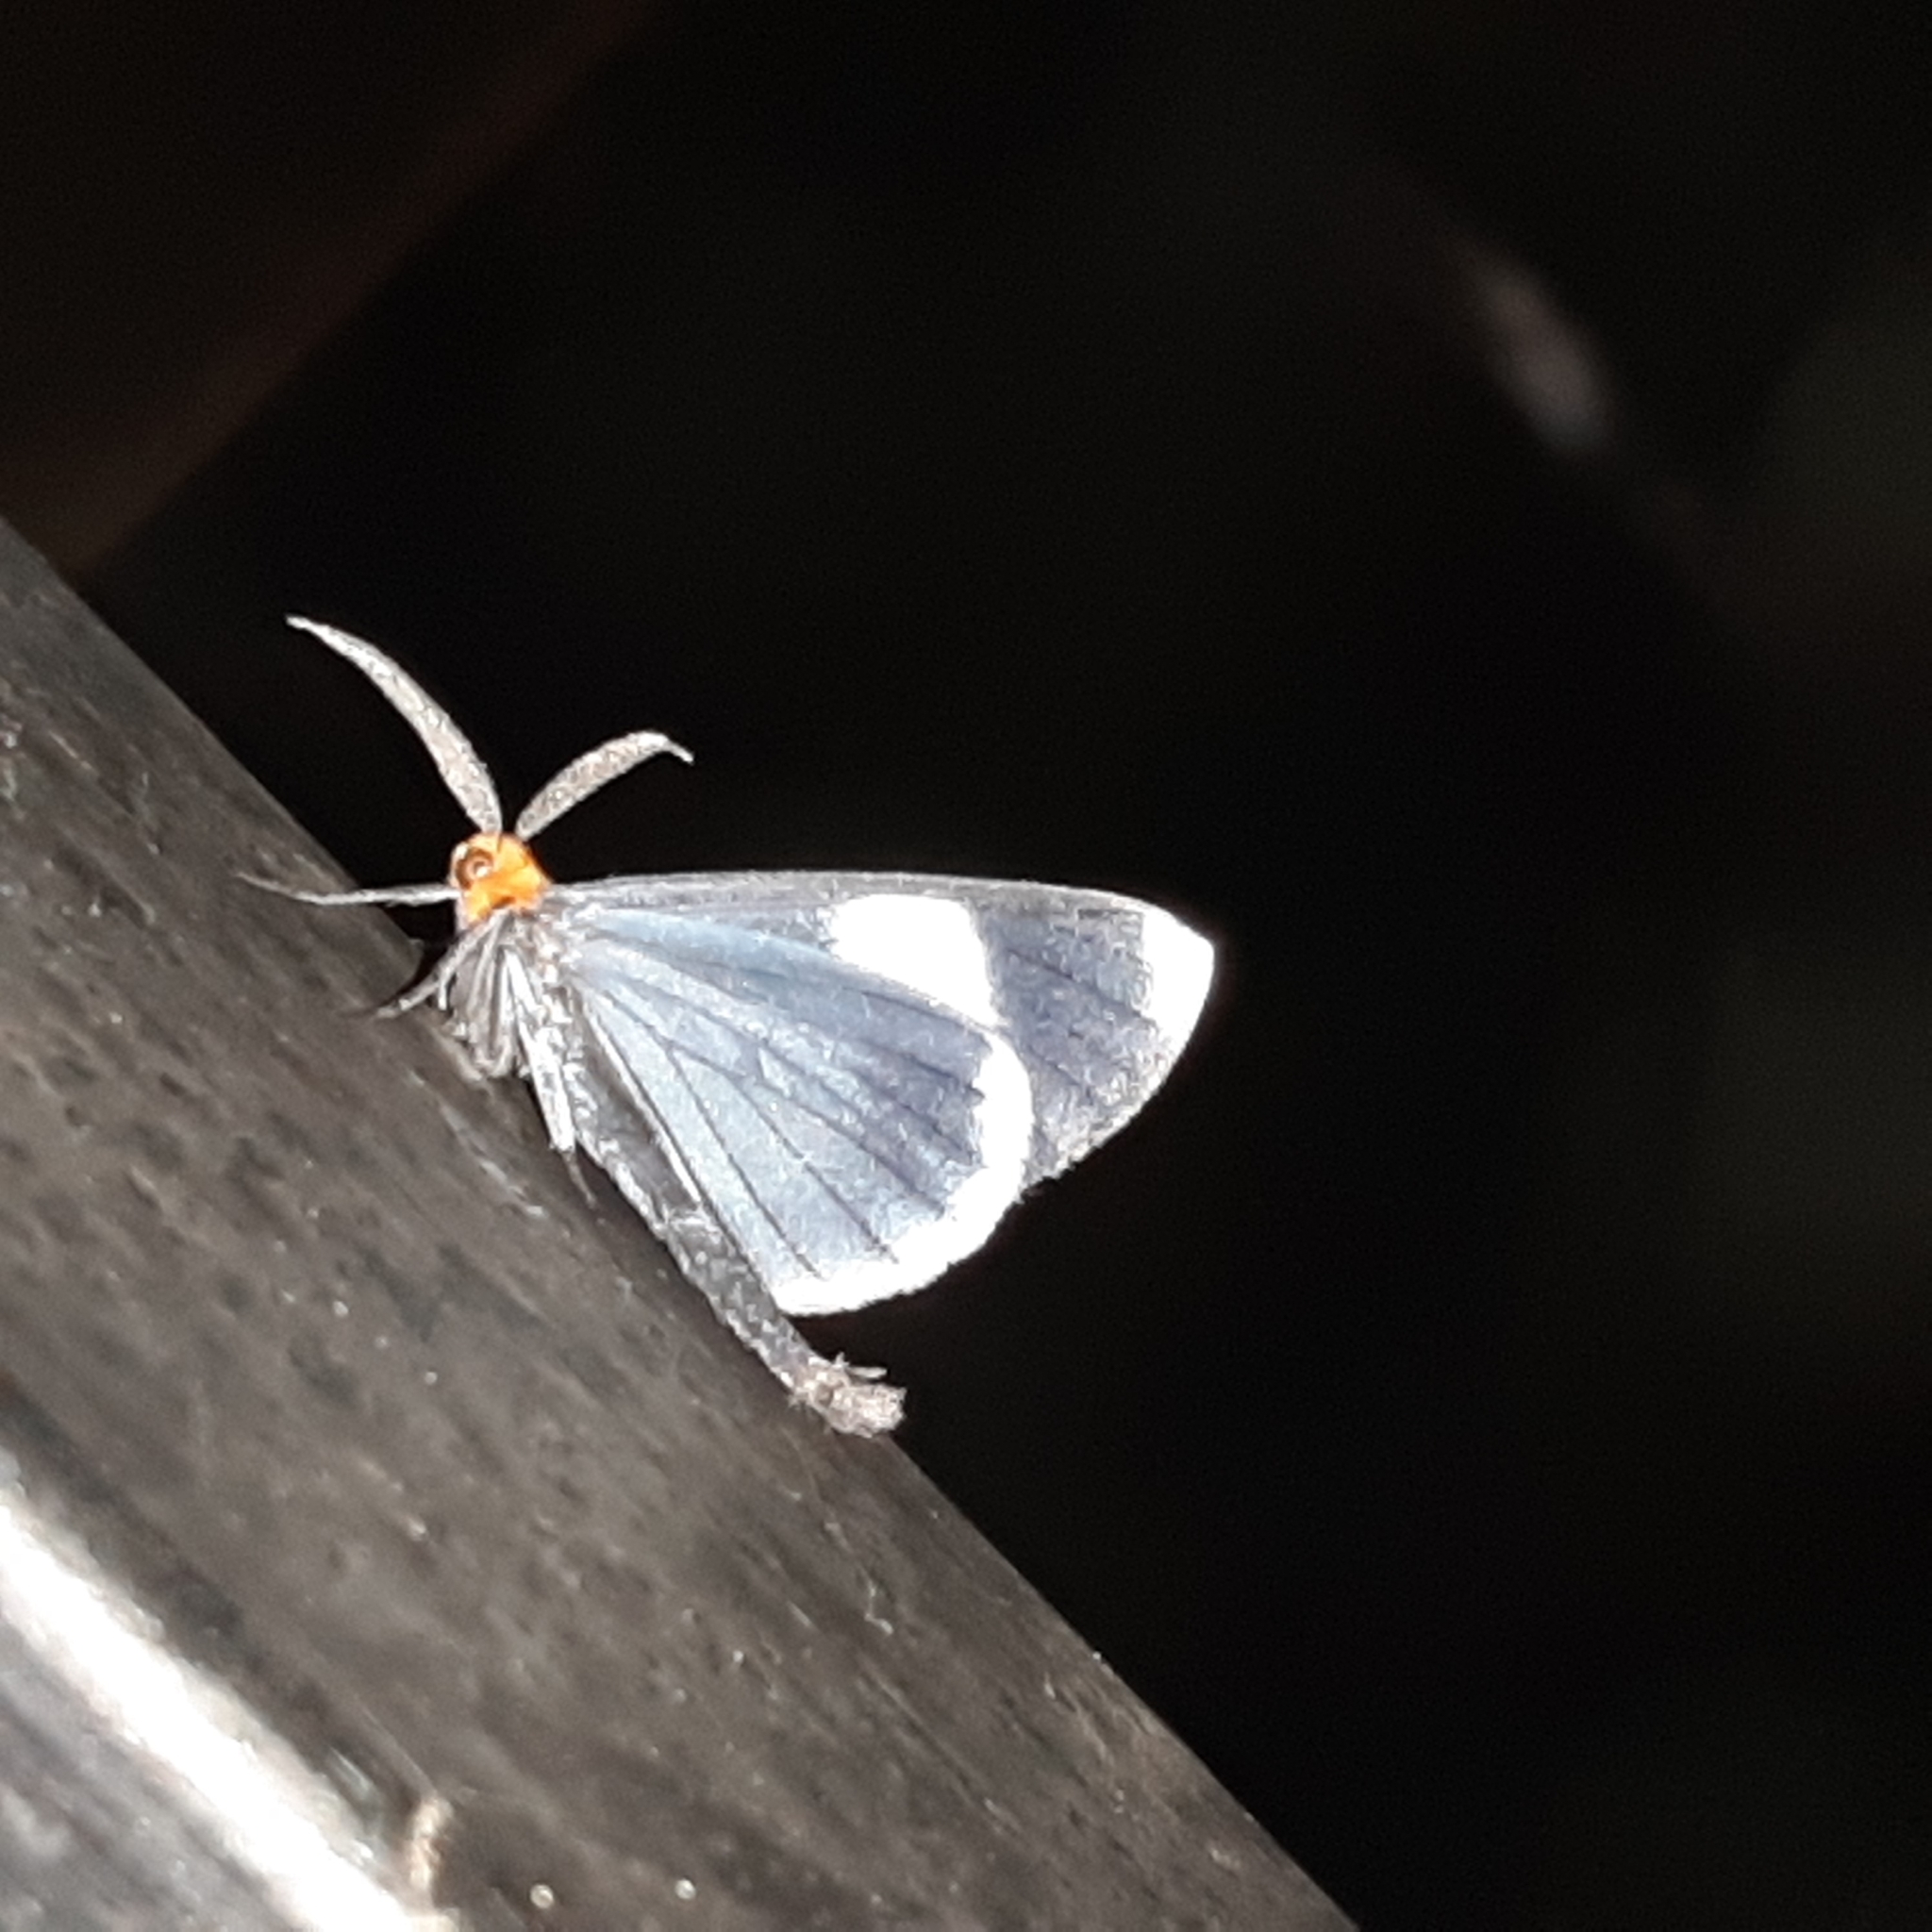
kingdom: Animalia
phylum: Arthropoda
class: Insecta
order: Lepidoptera
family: Geometridae
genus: Simena
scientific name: Simena luctifera
